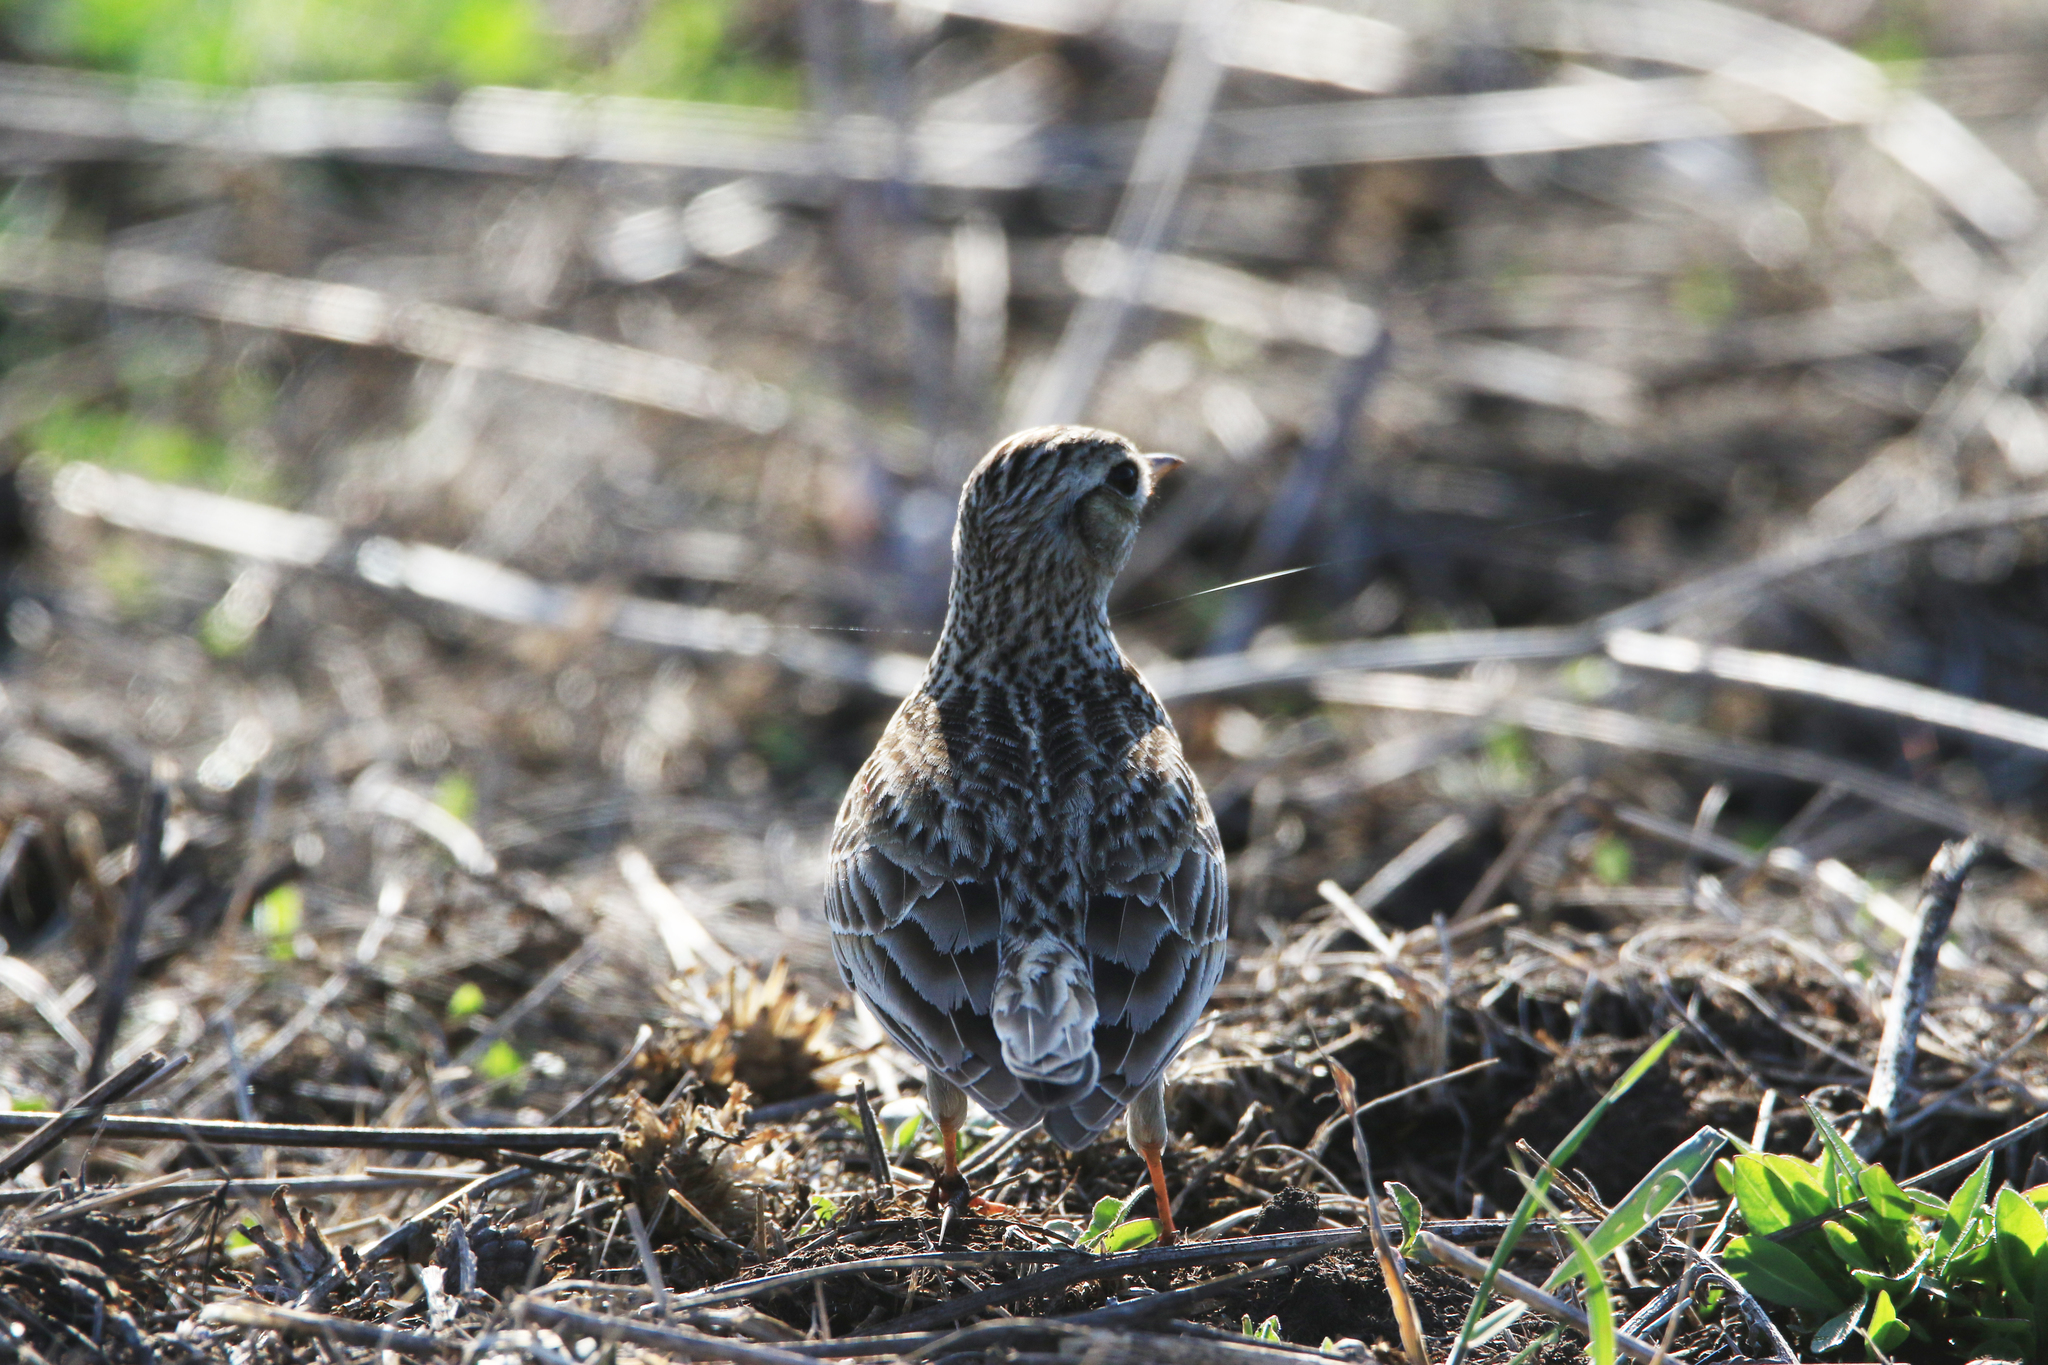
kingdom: Animalia
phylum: Chordata
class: Aves
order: Passeriformes
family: Alaudidae
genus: Alauda
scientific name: Alauda arvensis
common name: Eurasian skylark
